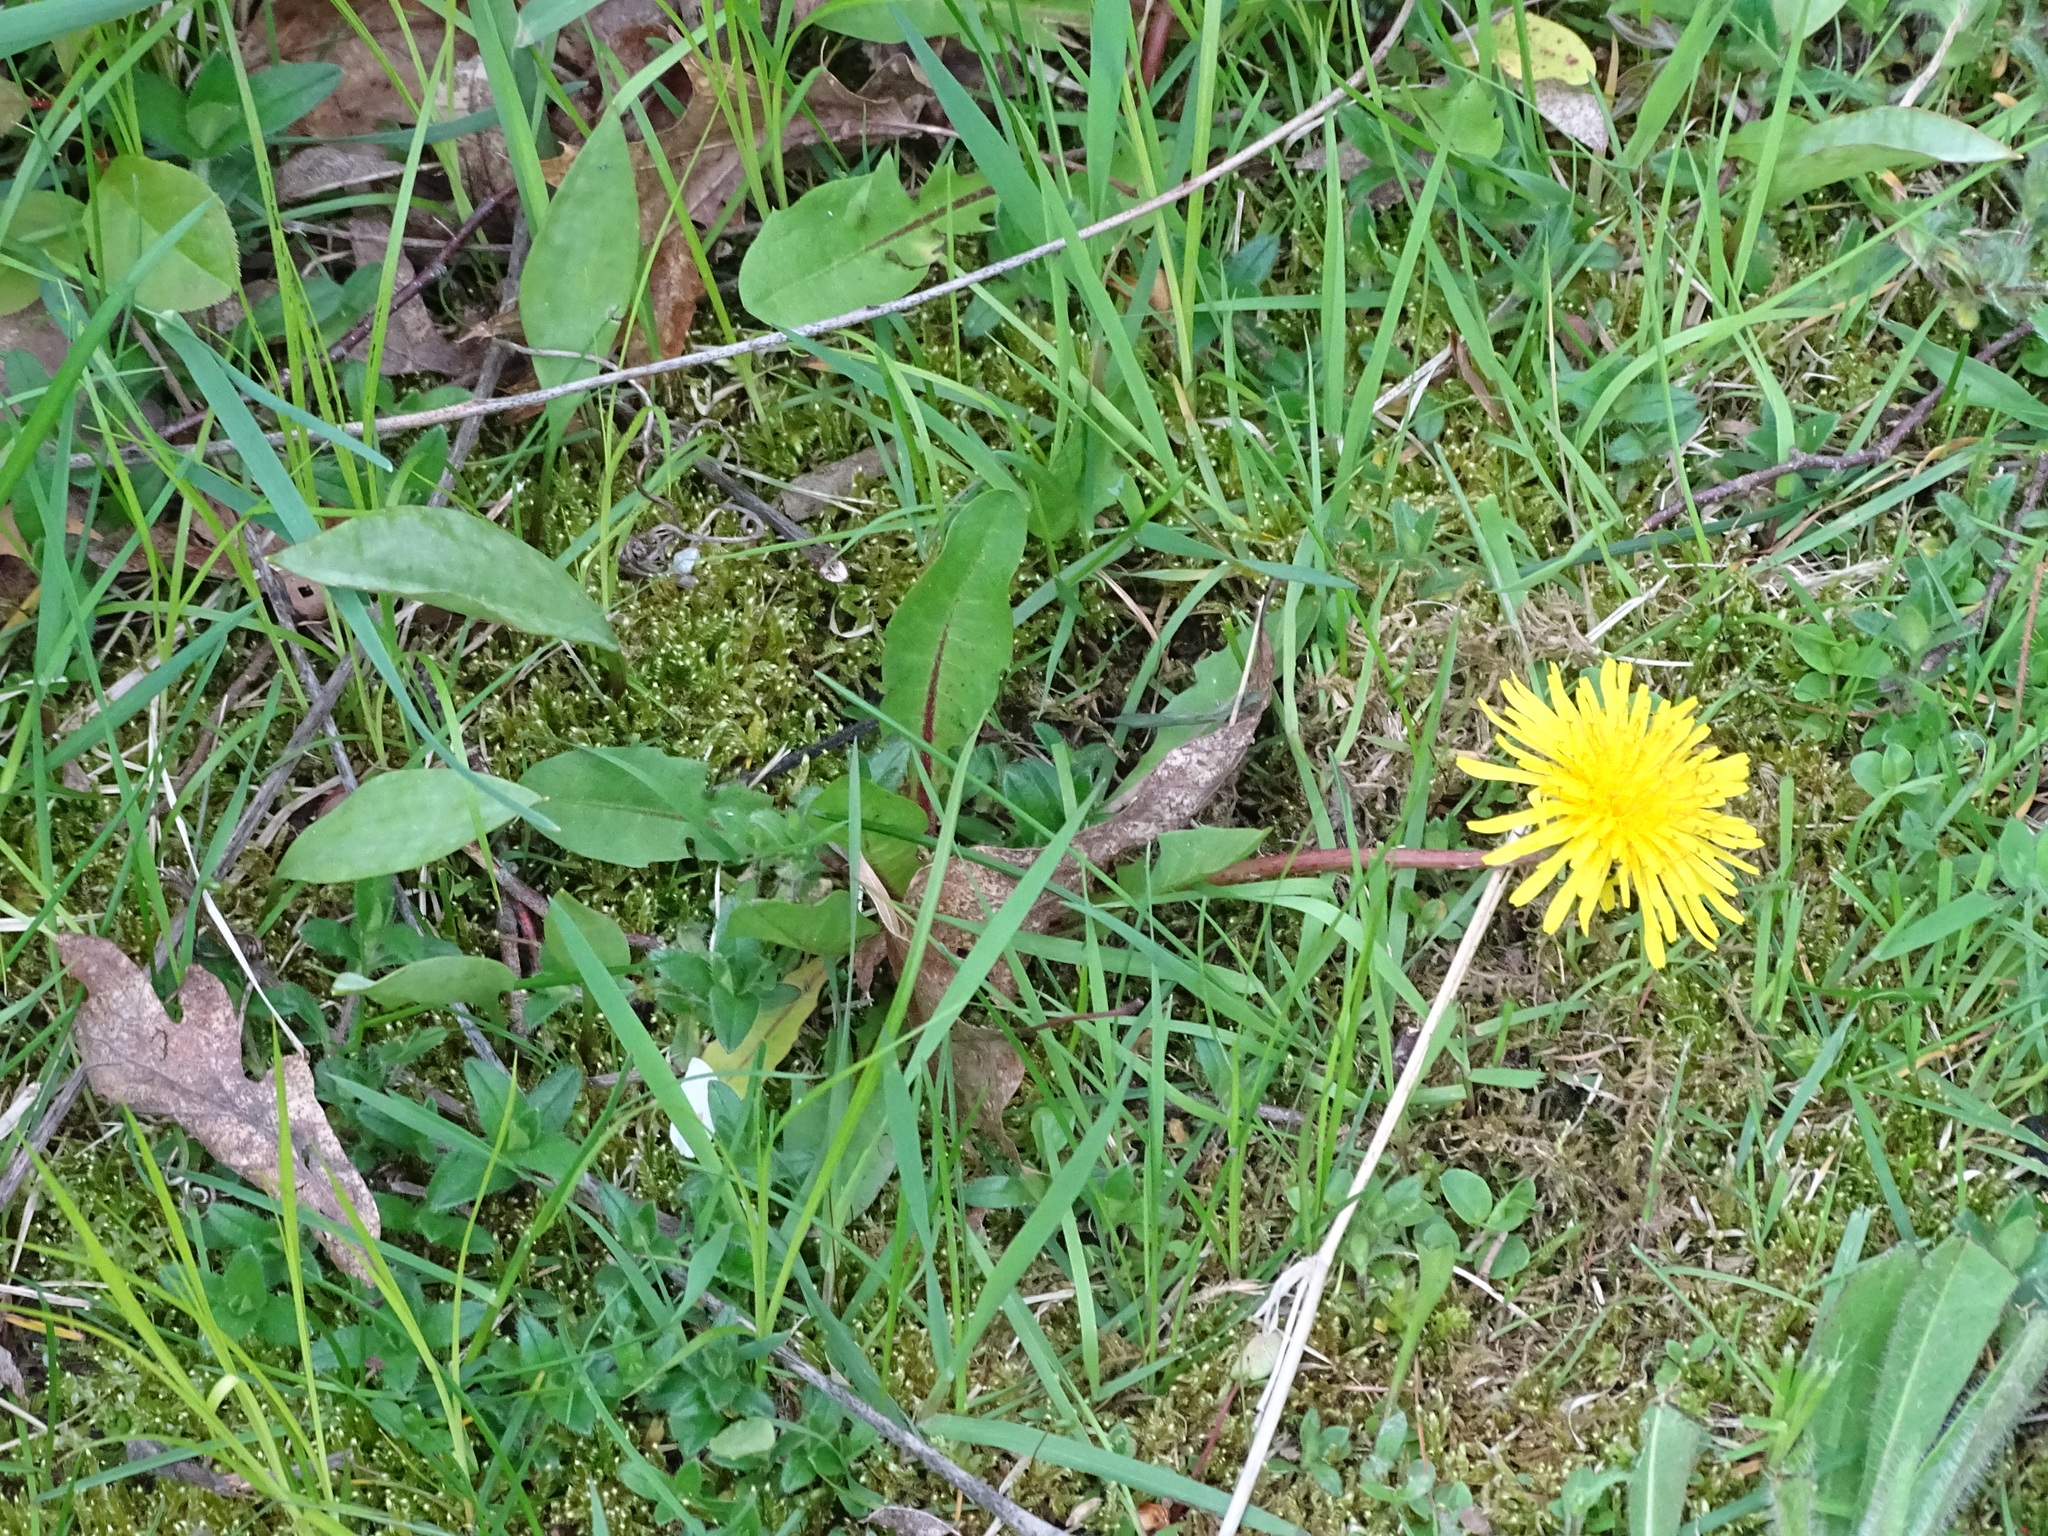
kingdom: Plantae
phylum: Tracheophyta
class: Magnoliopsida
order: Asterales
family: Asteraceae
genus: Taraxacum
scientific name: Taraxacum officinale
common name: Common dandelion
